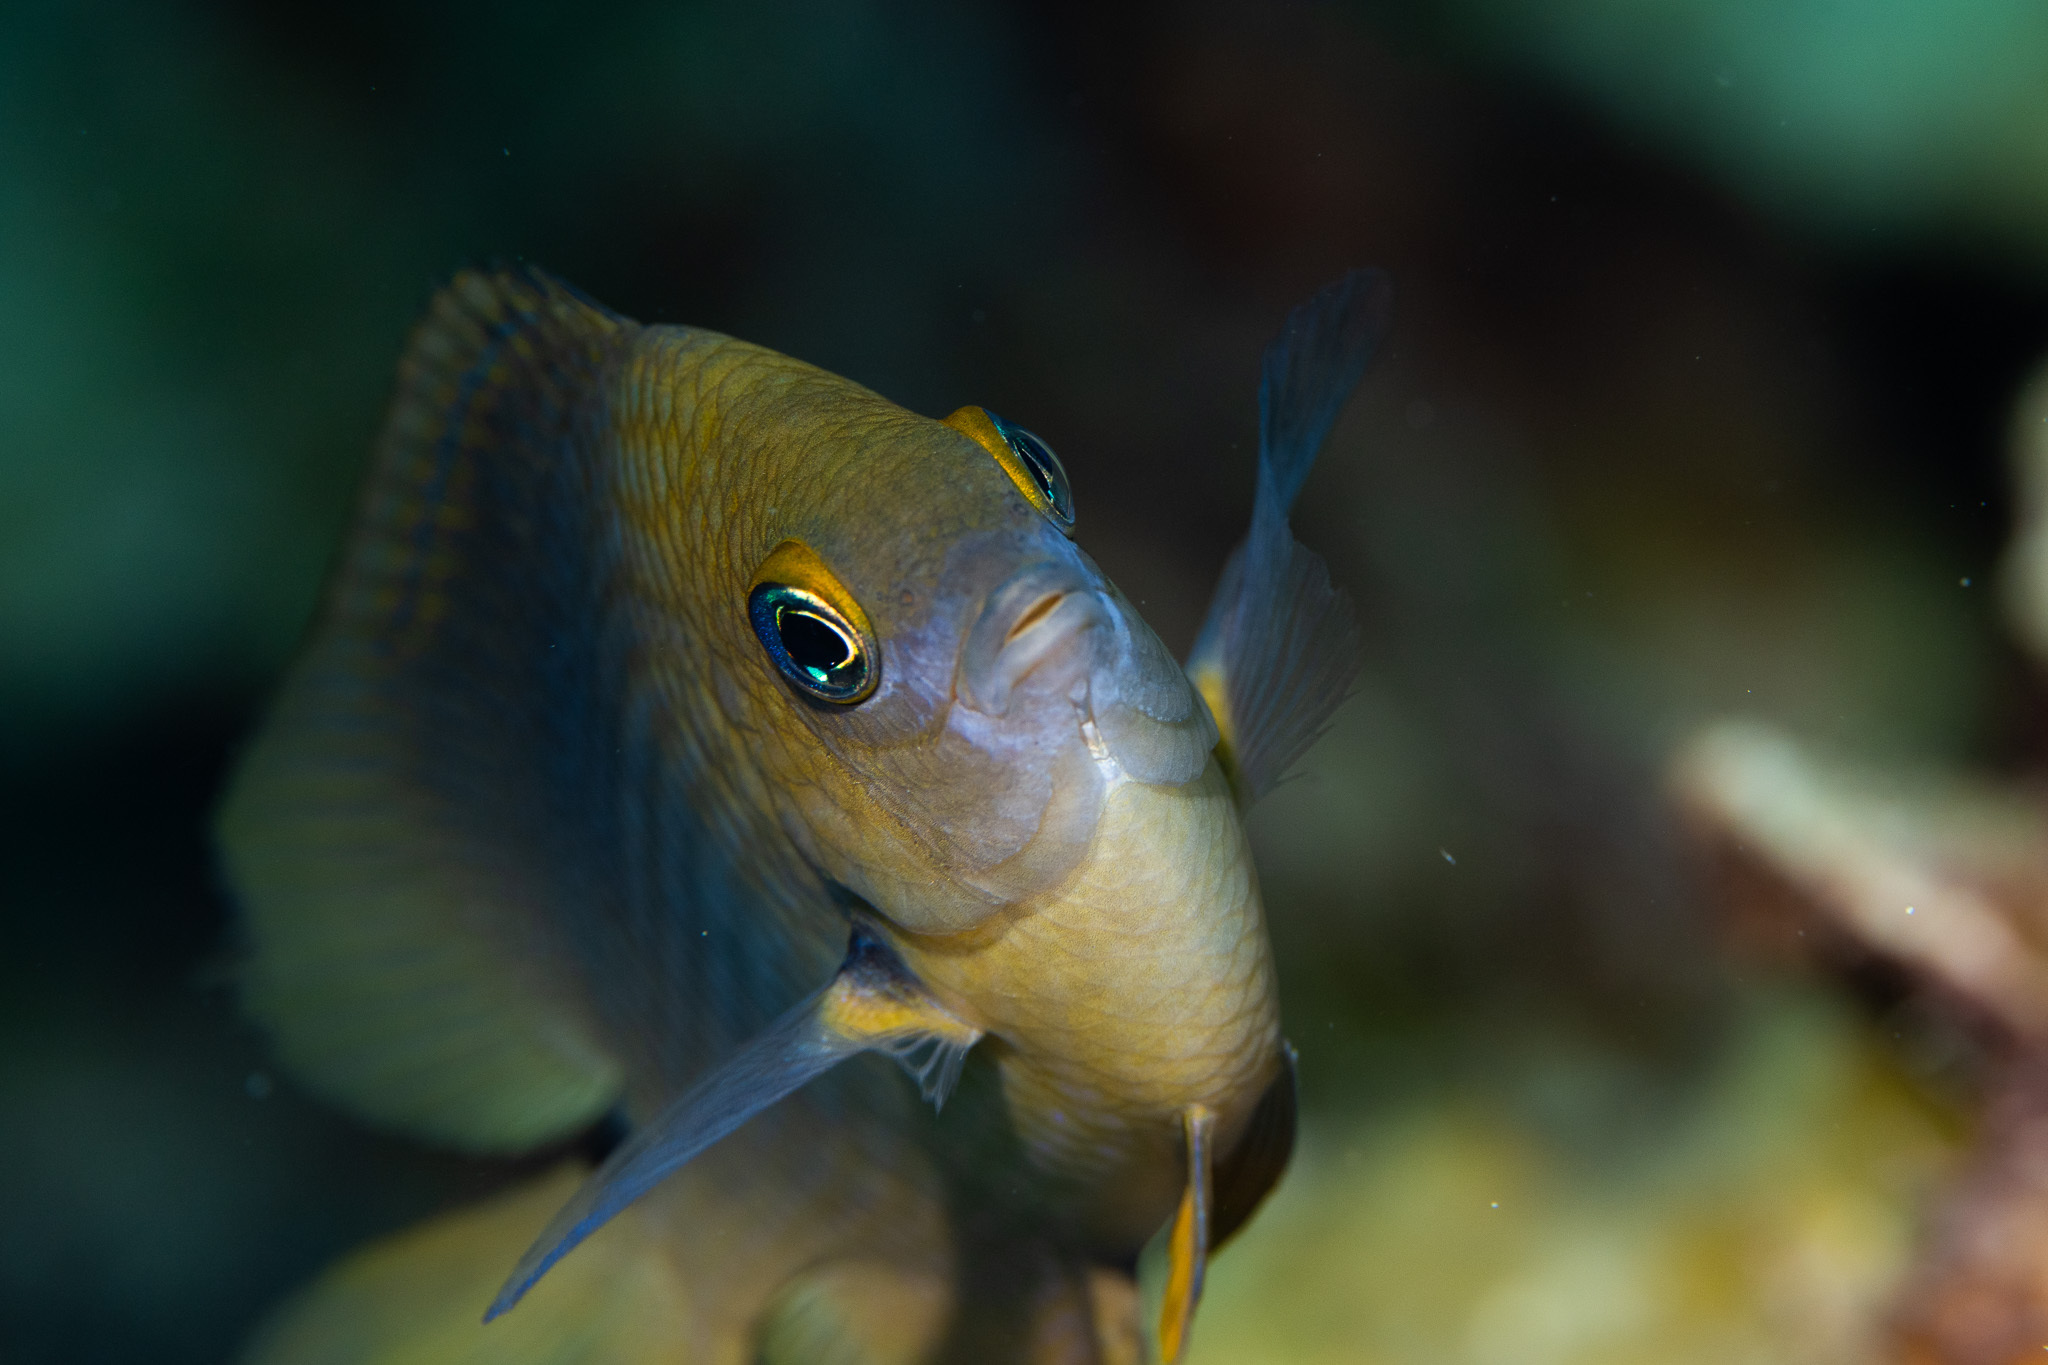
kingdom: Animalia
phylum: Chordata
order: Perciformes
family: Pomacentridae
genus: Stegastes
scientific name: Stegastes planifrons
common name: Threespot damselfish
